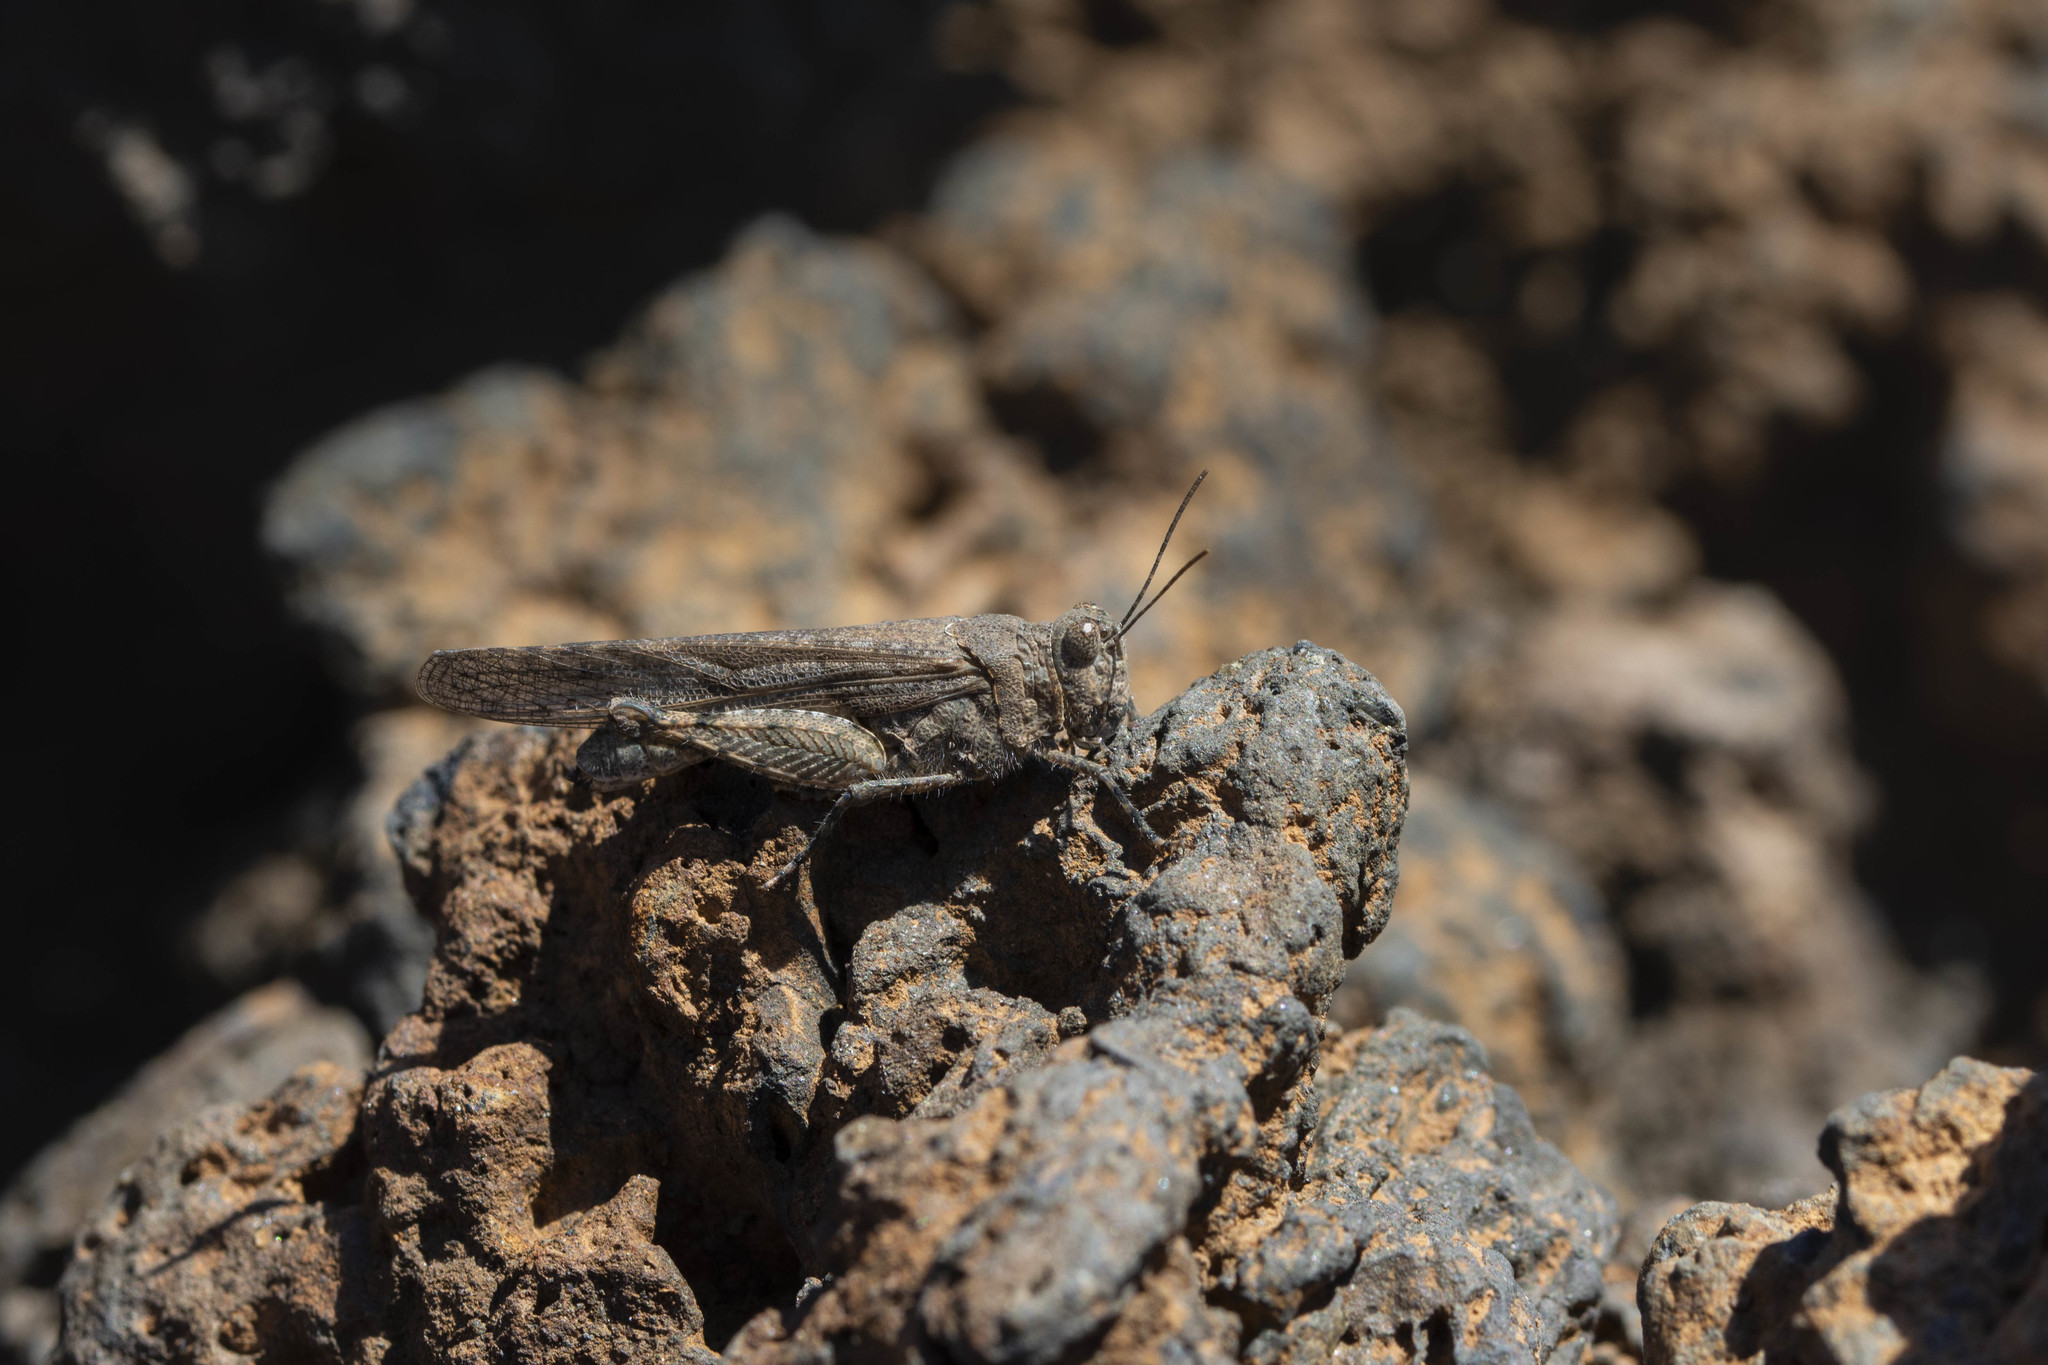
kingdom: Animalia
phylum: Arthropoda
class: Insecta
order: Orthoptera
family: Acrididae
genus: Sphingonotus
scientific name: Sphingonotus rubescens
